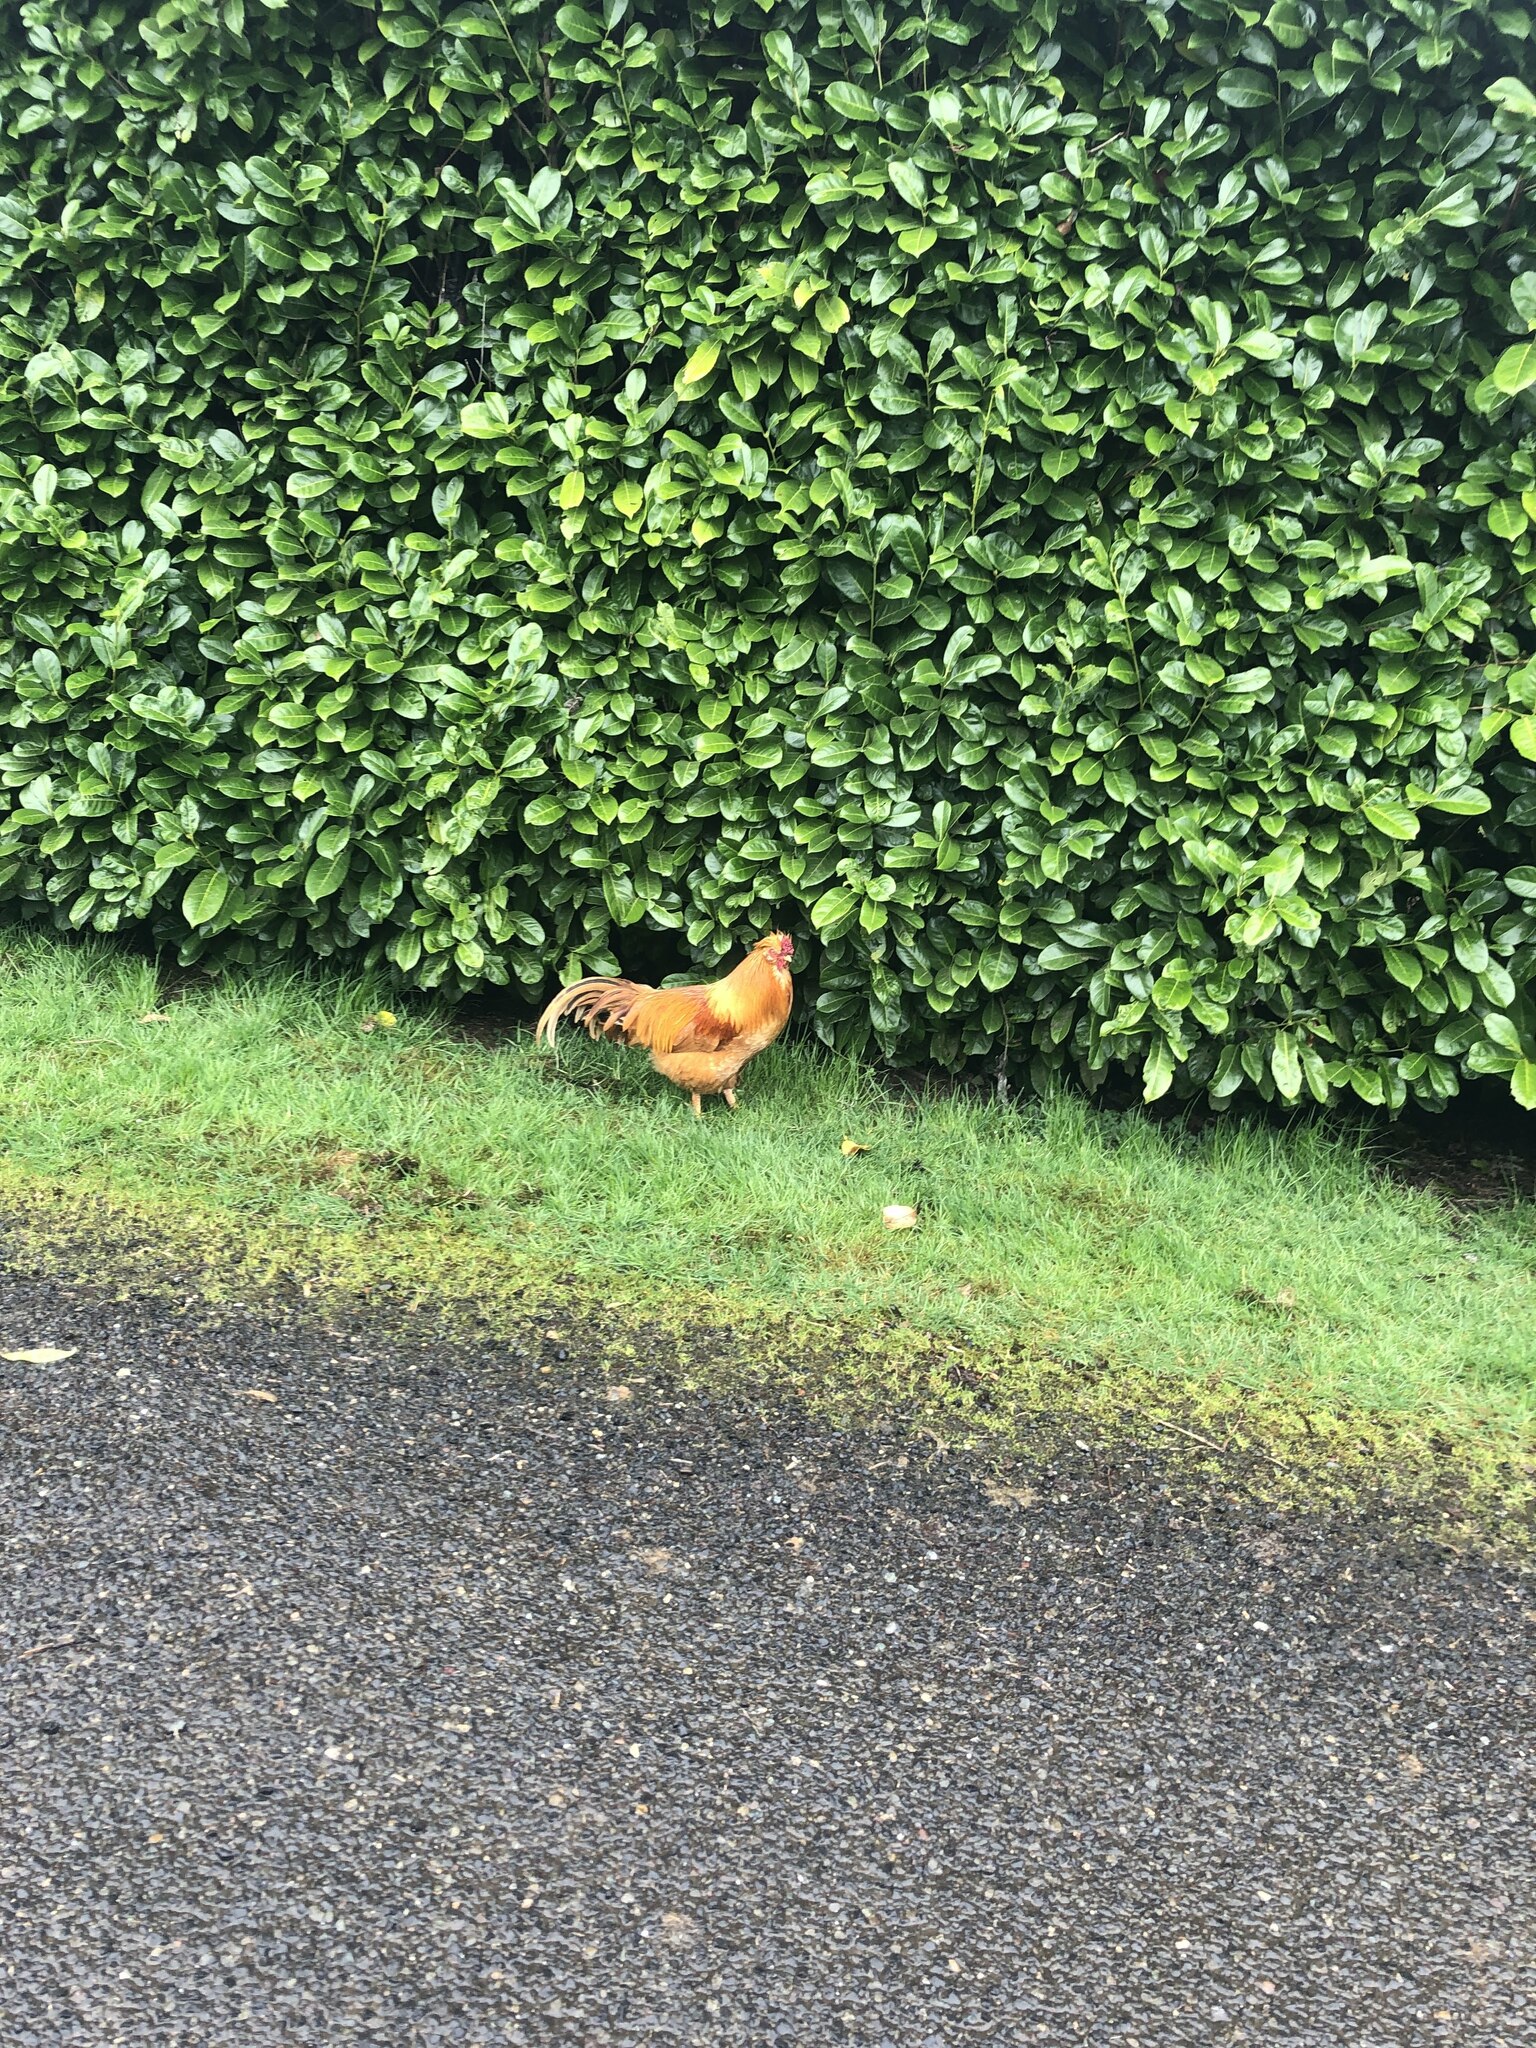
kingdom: Animalia
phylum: Chordata
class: Aves
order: Galliformes
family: Phasianidae
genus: Gallus
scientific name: Gallus gallus
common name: Red junglefowl
